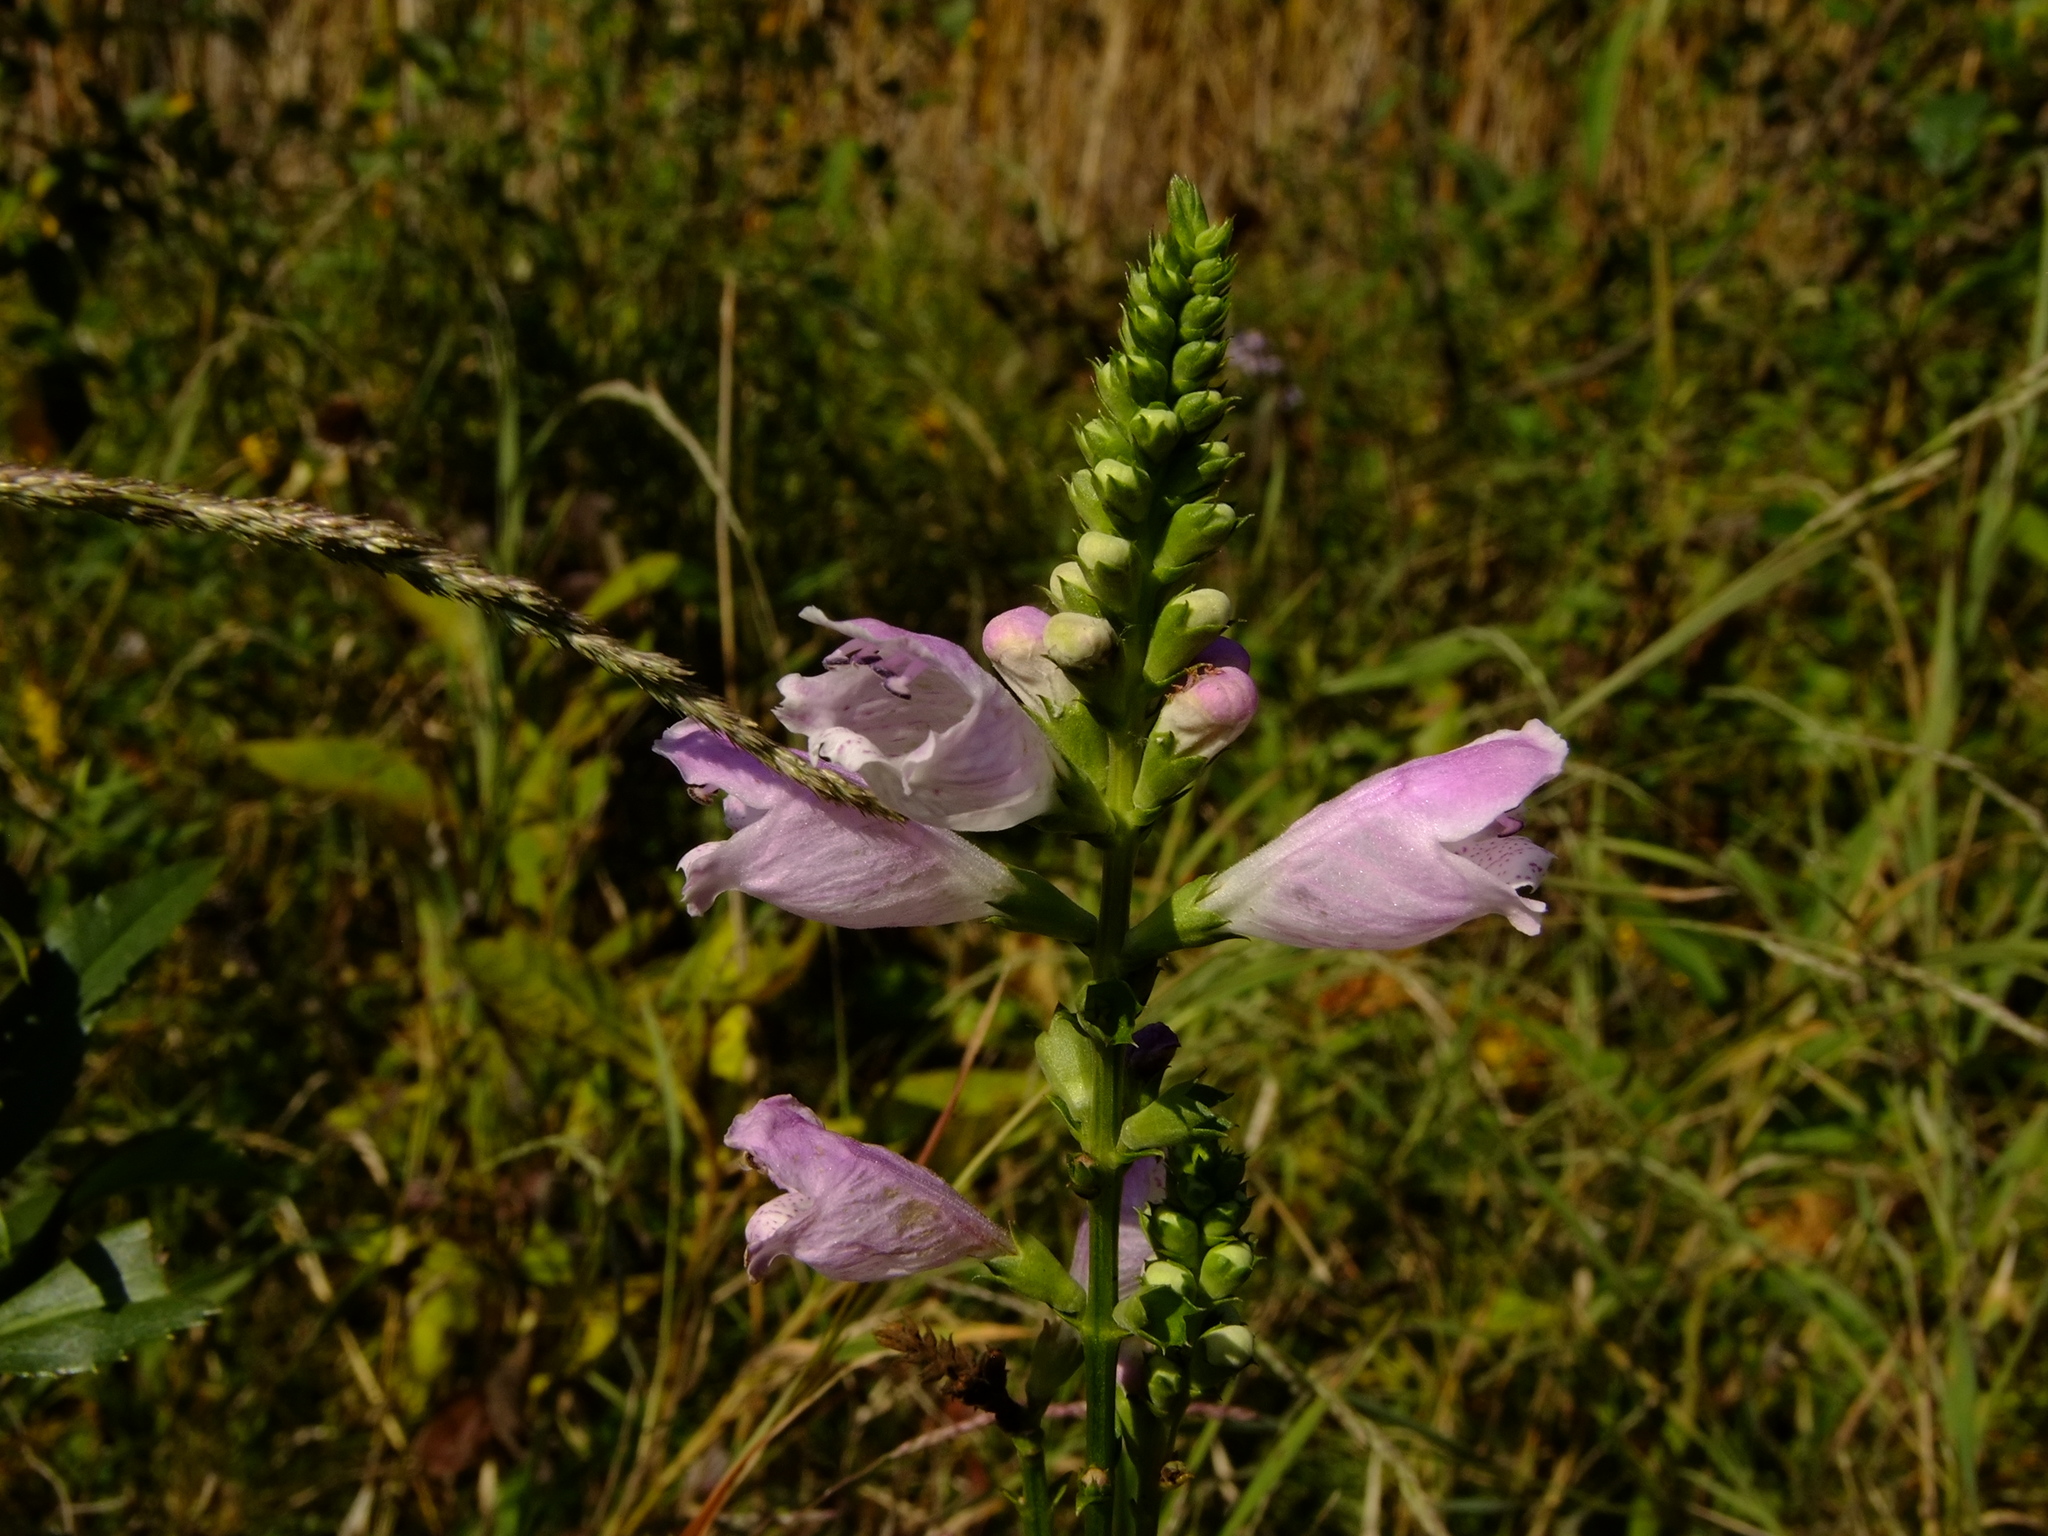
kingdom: Plantae
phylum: Tracheophyta
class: Magnoliopsida
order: Lamiales
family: Lamiaceae
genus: Physostegia
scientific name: Physostegia virginiana
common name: Obedient-plant
